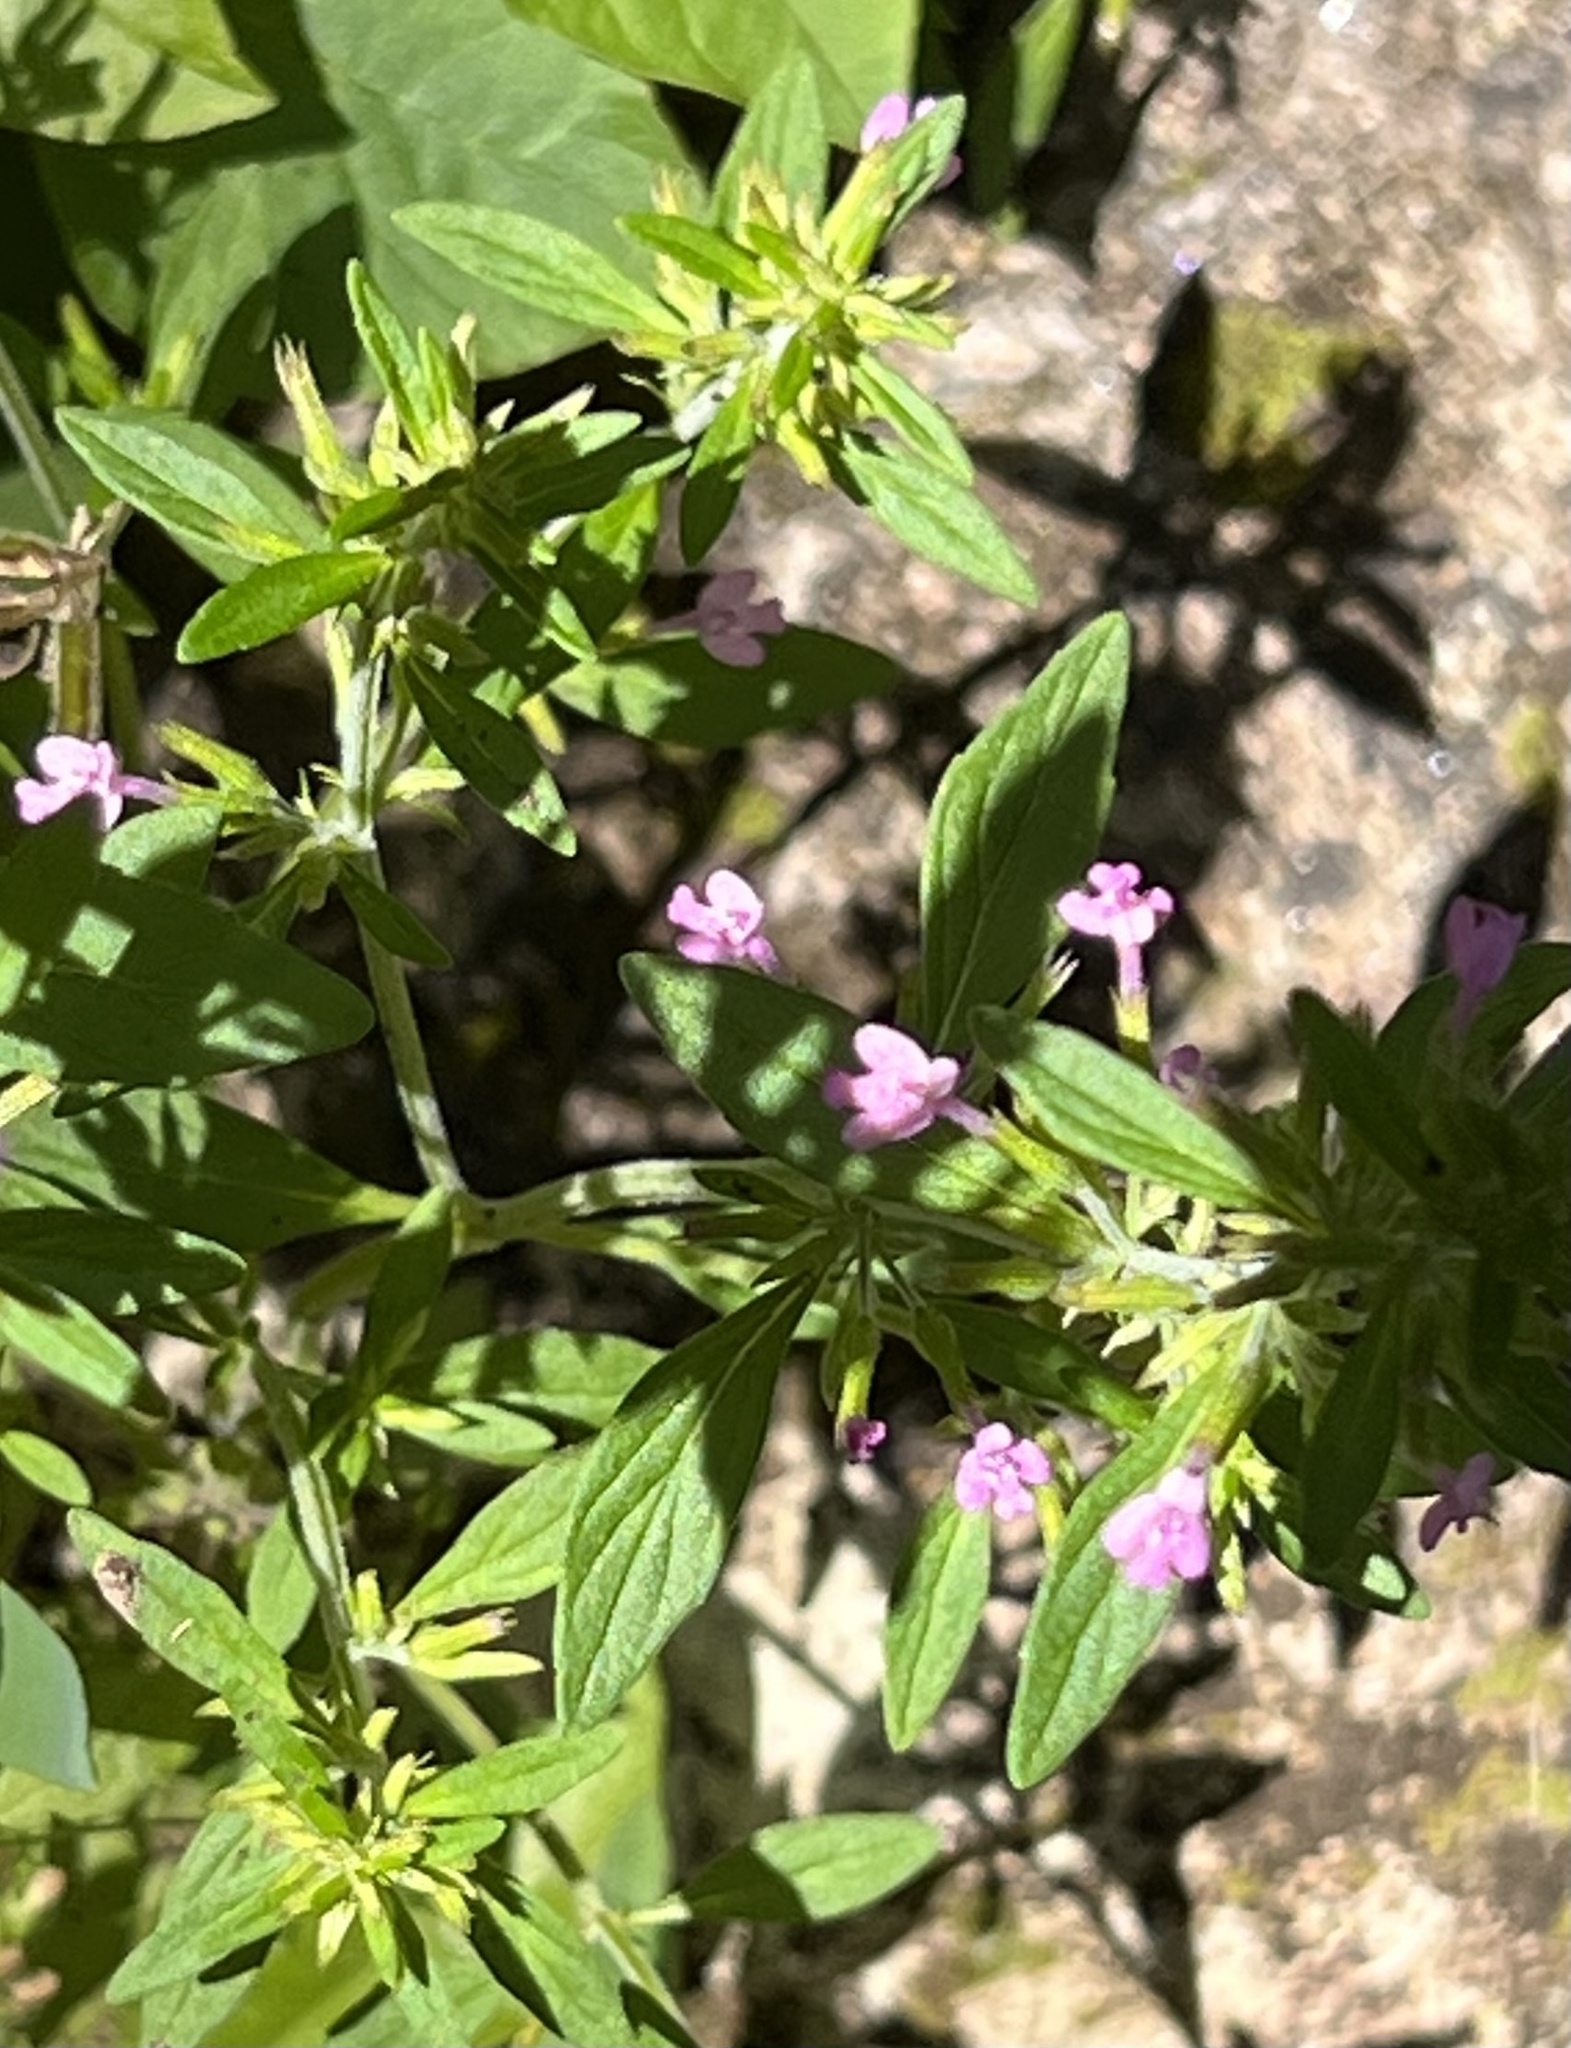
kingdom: Plantae
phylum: Tracheophyta
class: Magnoliopsida
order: Lamiales
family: Lamiaceae
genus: Hedeoma
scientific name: Hedeoma acinoides
